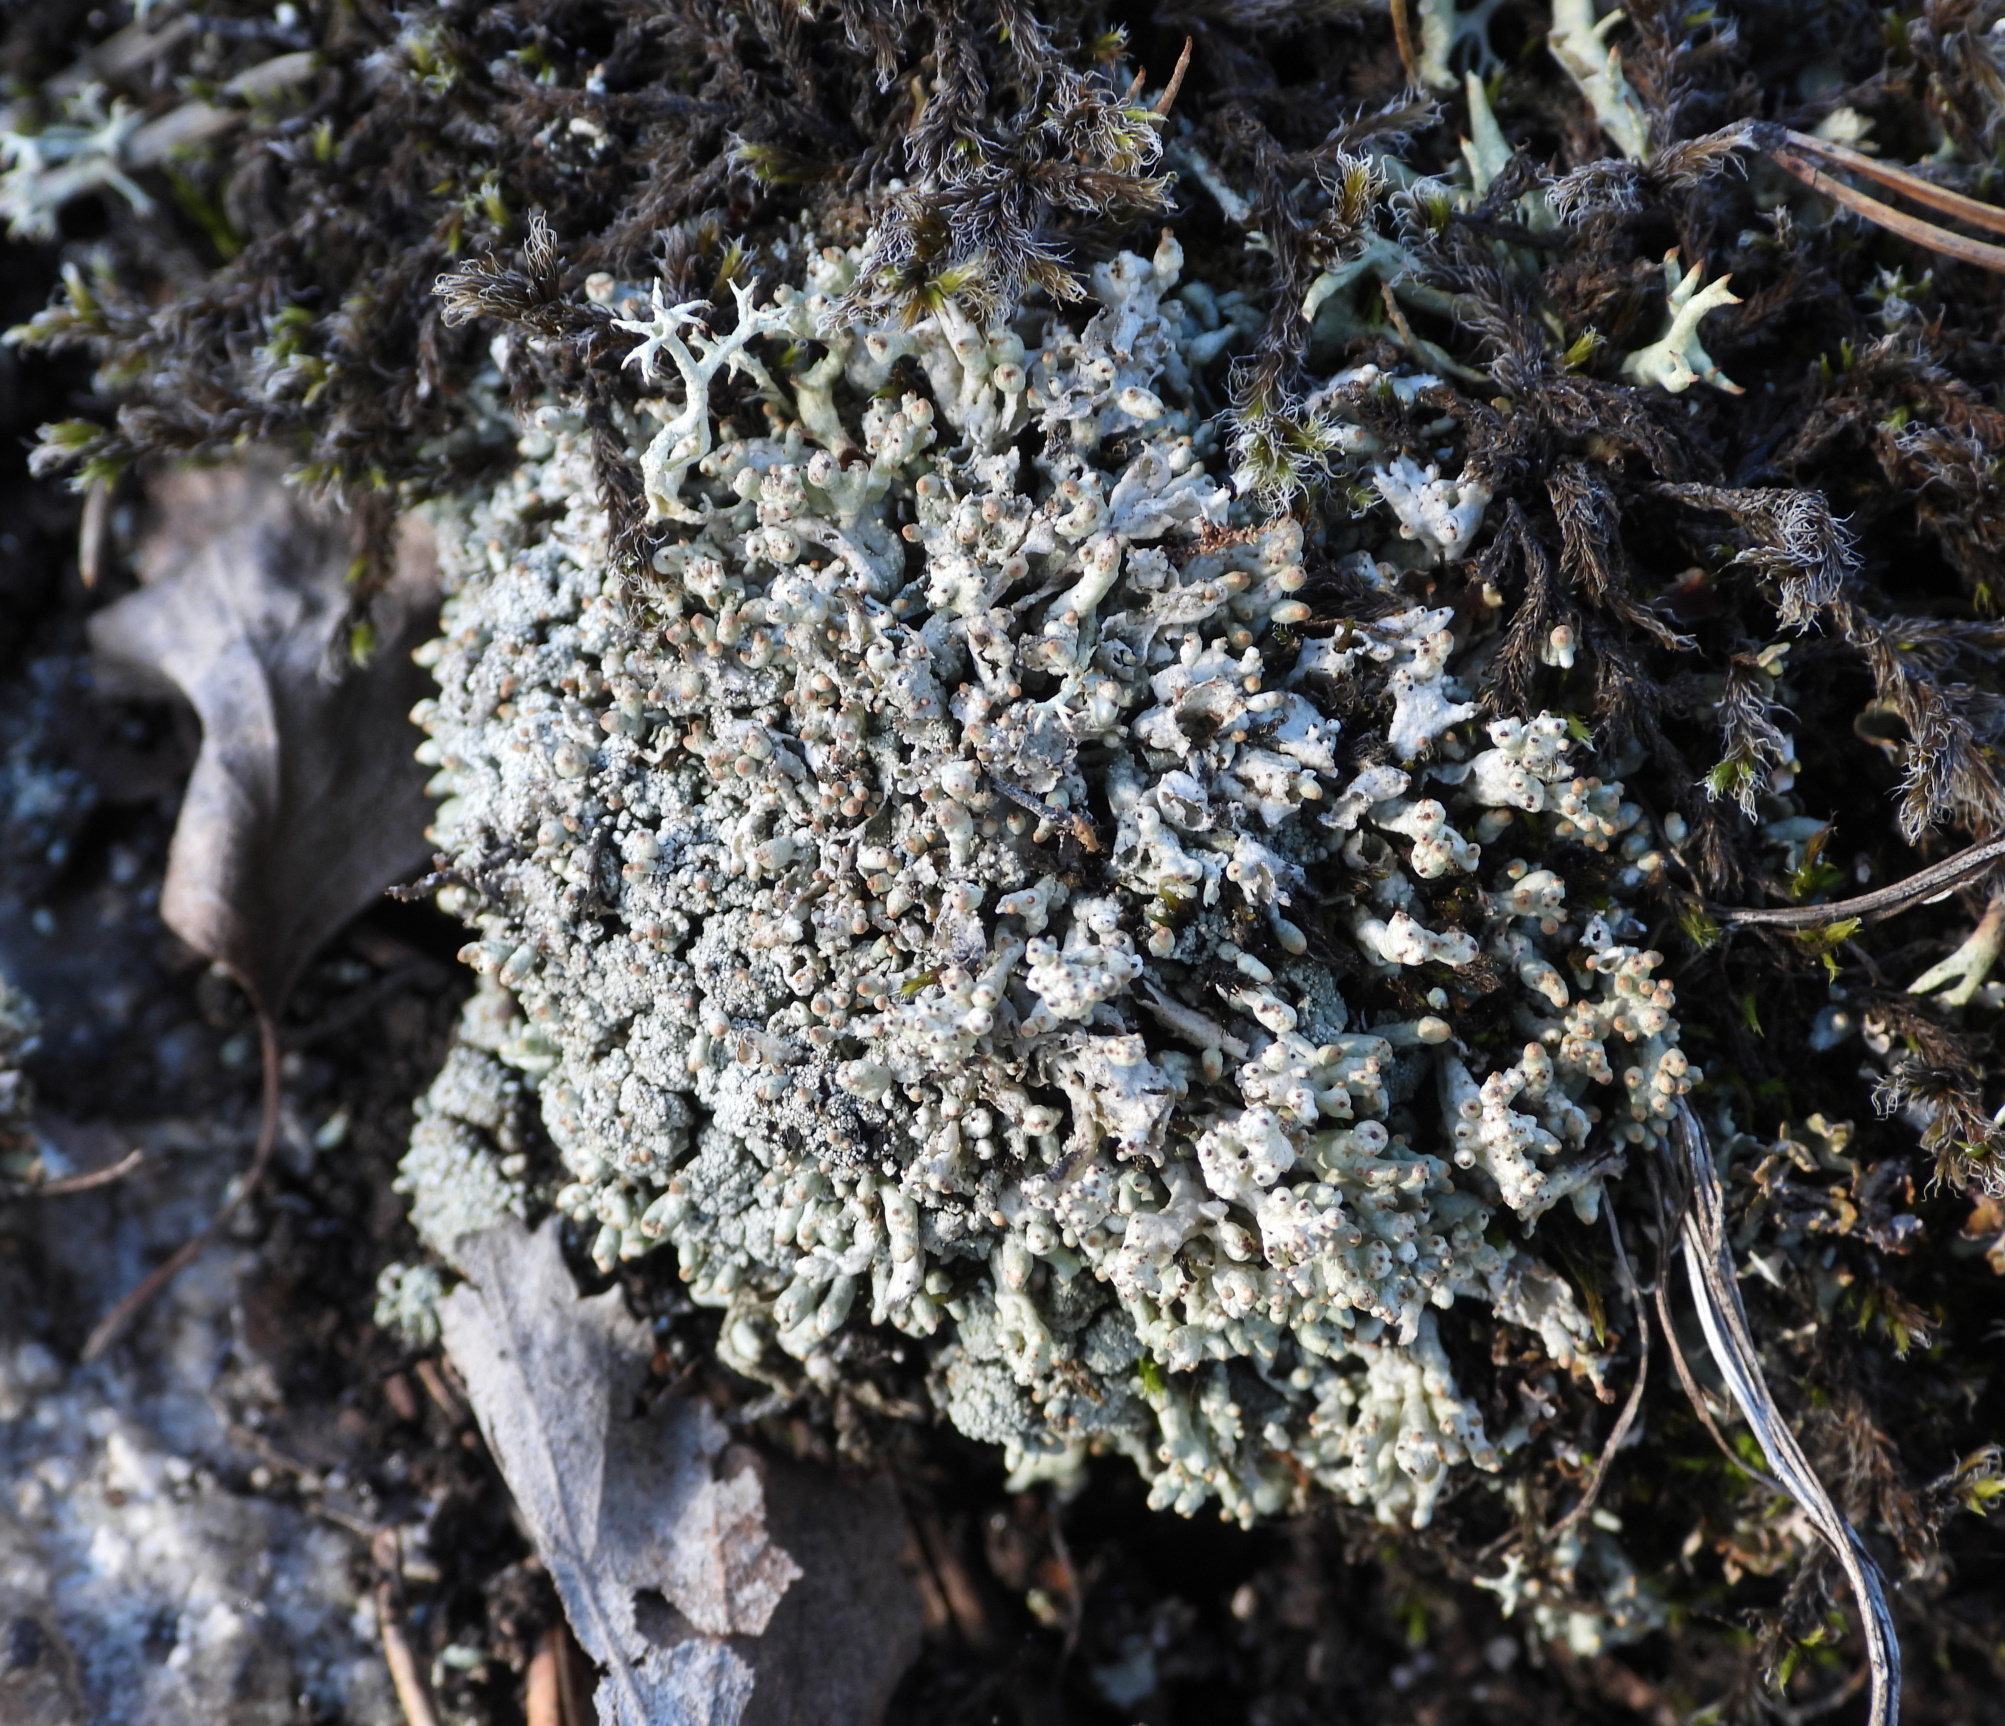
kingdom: Fungi
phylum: Ascomycota
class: Lecanoromycetes
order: Lecanorales
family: Cladoniaceae
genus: Pycnothelia
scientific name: Pycnothelia papillaria
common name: Nipple lichen
